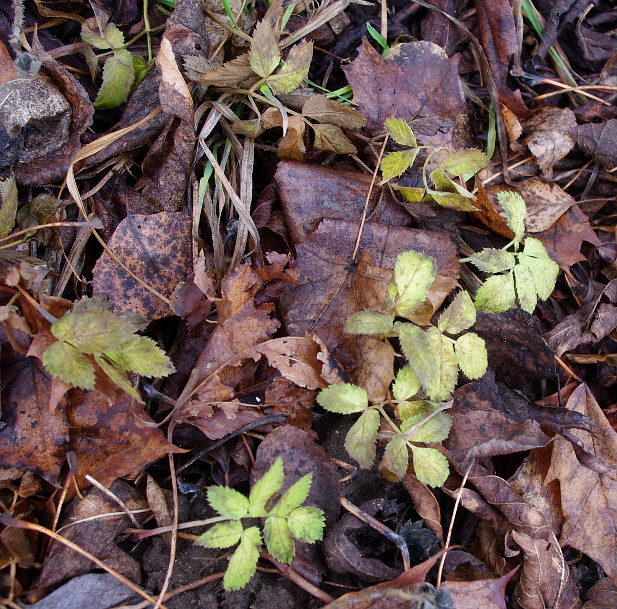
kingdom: Plantae
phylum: Tracheophyta
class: Magnoliopsida
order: Apiales
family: Apiaceae
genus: Aegopodium
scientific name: Aegopodium podagraria
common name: Ground-elder
